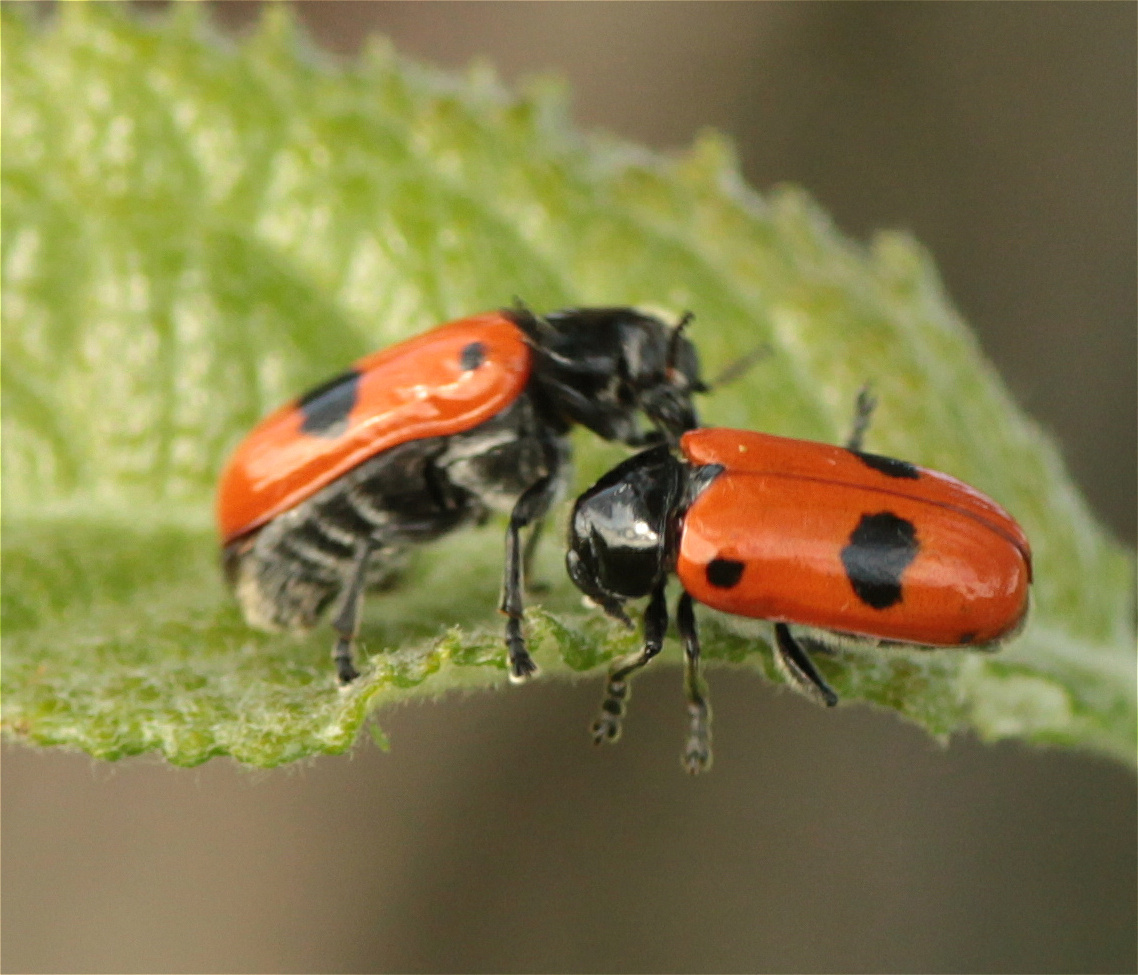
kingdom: Animalia
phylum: Arthropoda
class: Insecta
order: Coleoptera
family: Chrysomelidae
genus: Clytra
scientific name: Clytra laeviuscula
